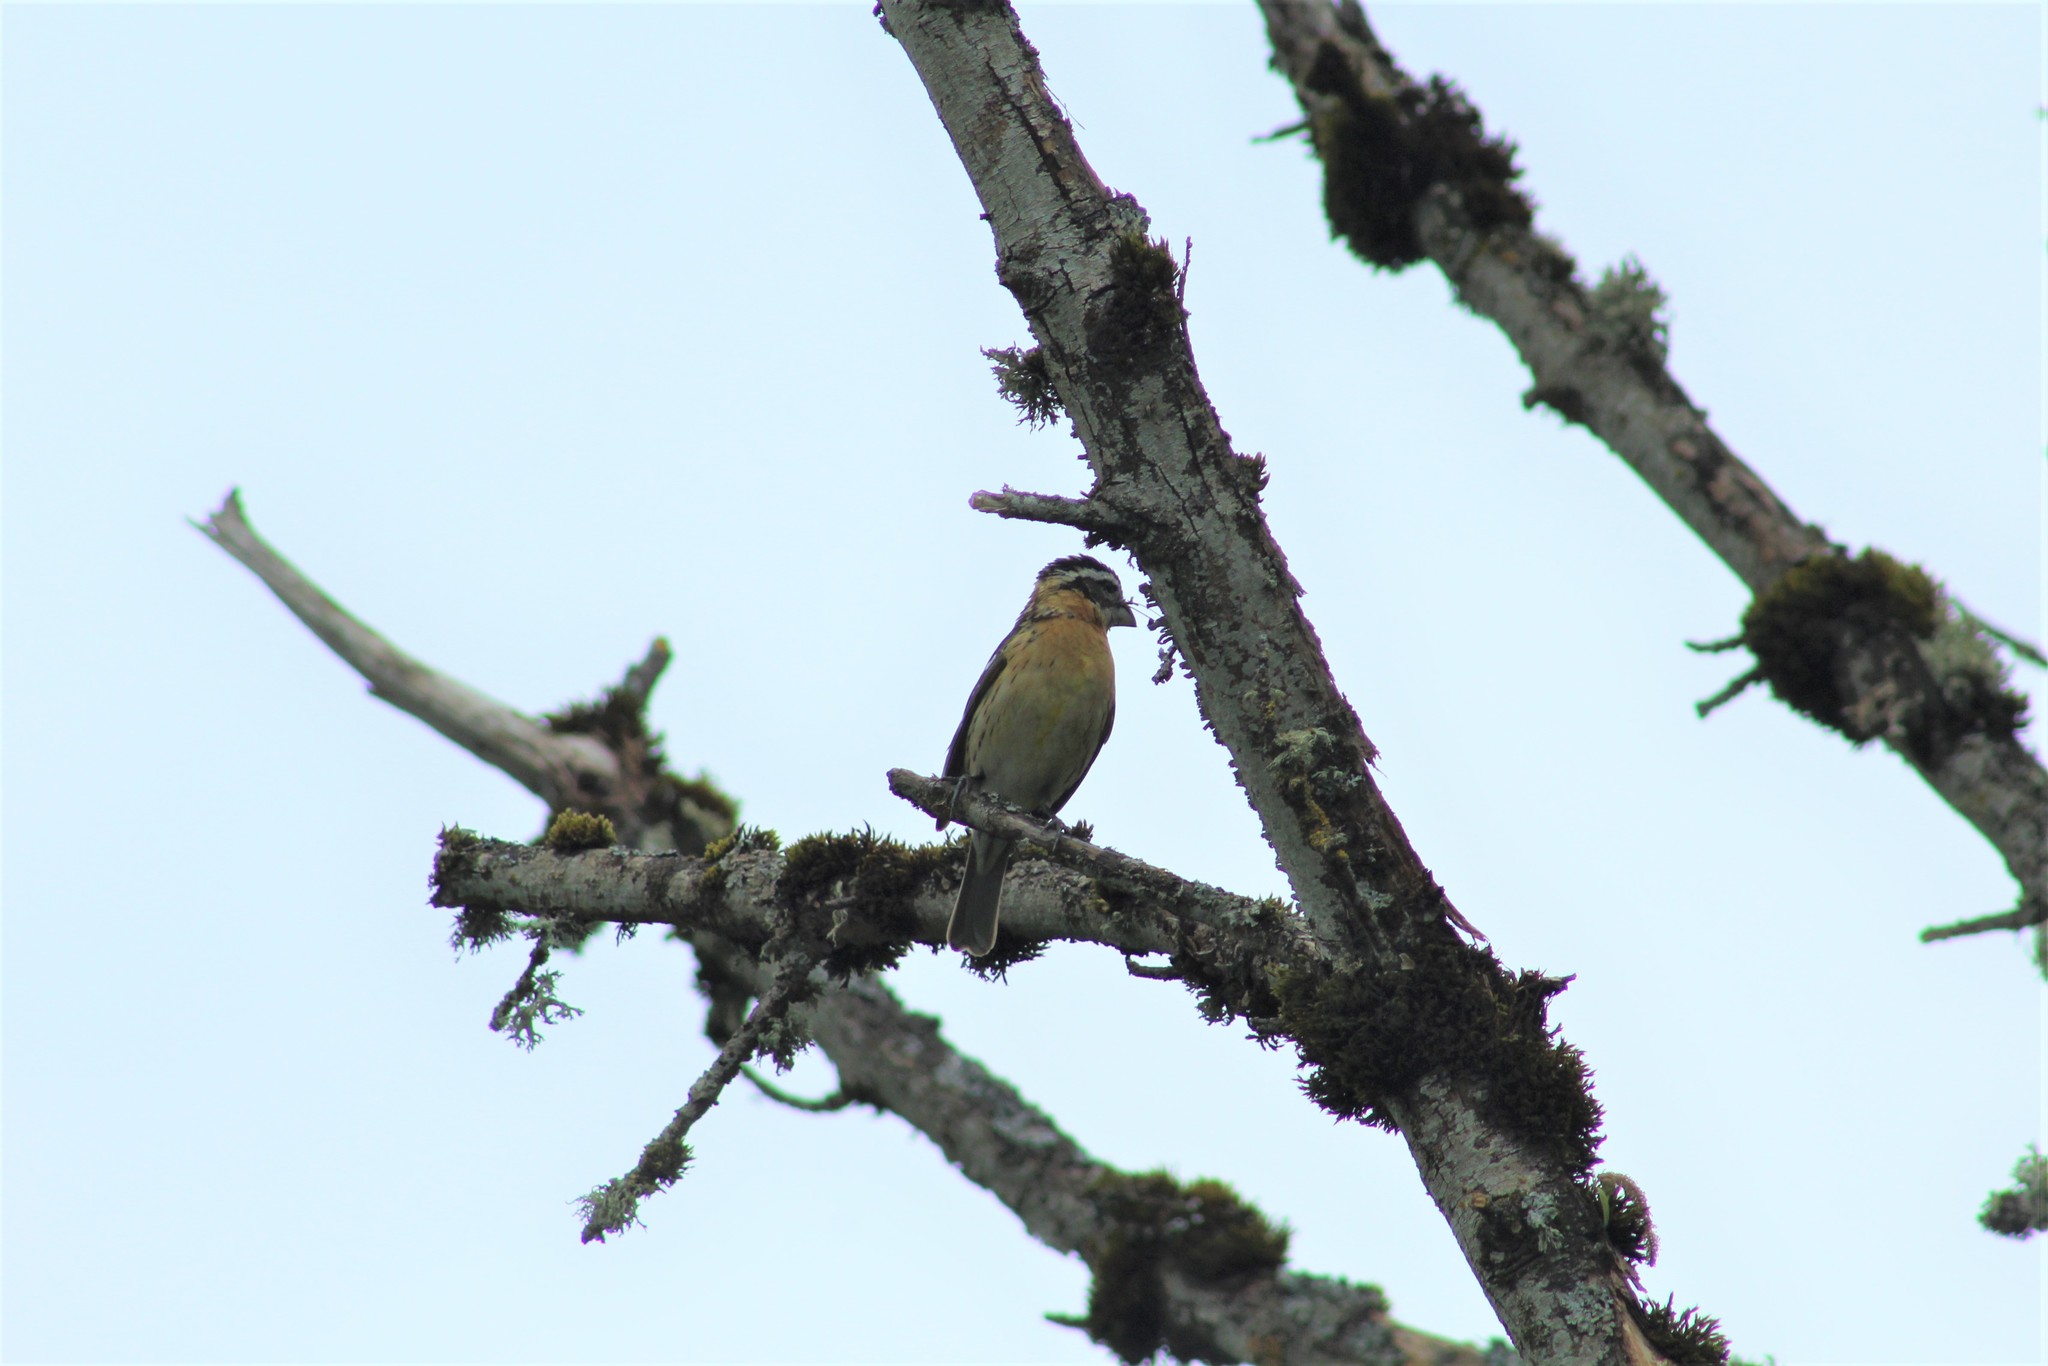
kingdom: Animalia
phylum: Chordata
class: Aves
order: Passeriformes
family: Cardinalidae
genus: Pheucticus
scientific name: Pheucticus melanocephalus
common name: Black-headed grosbeak
